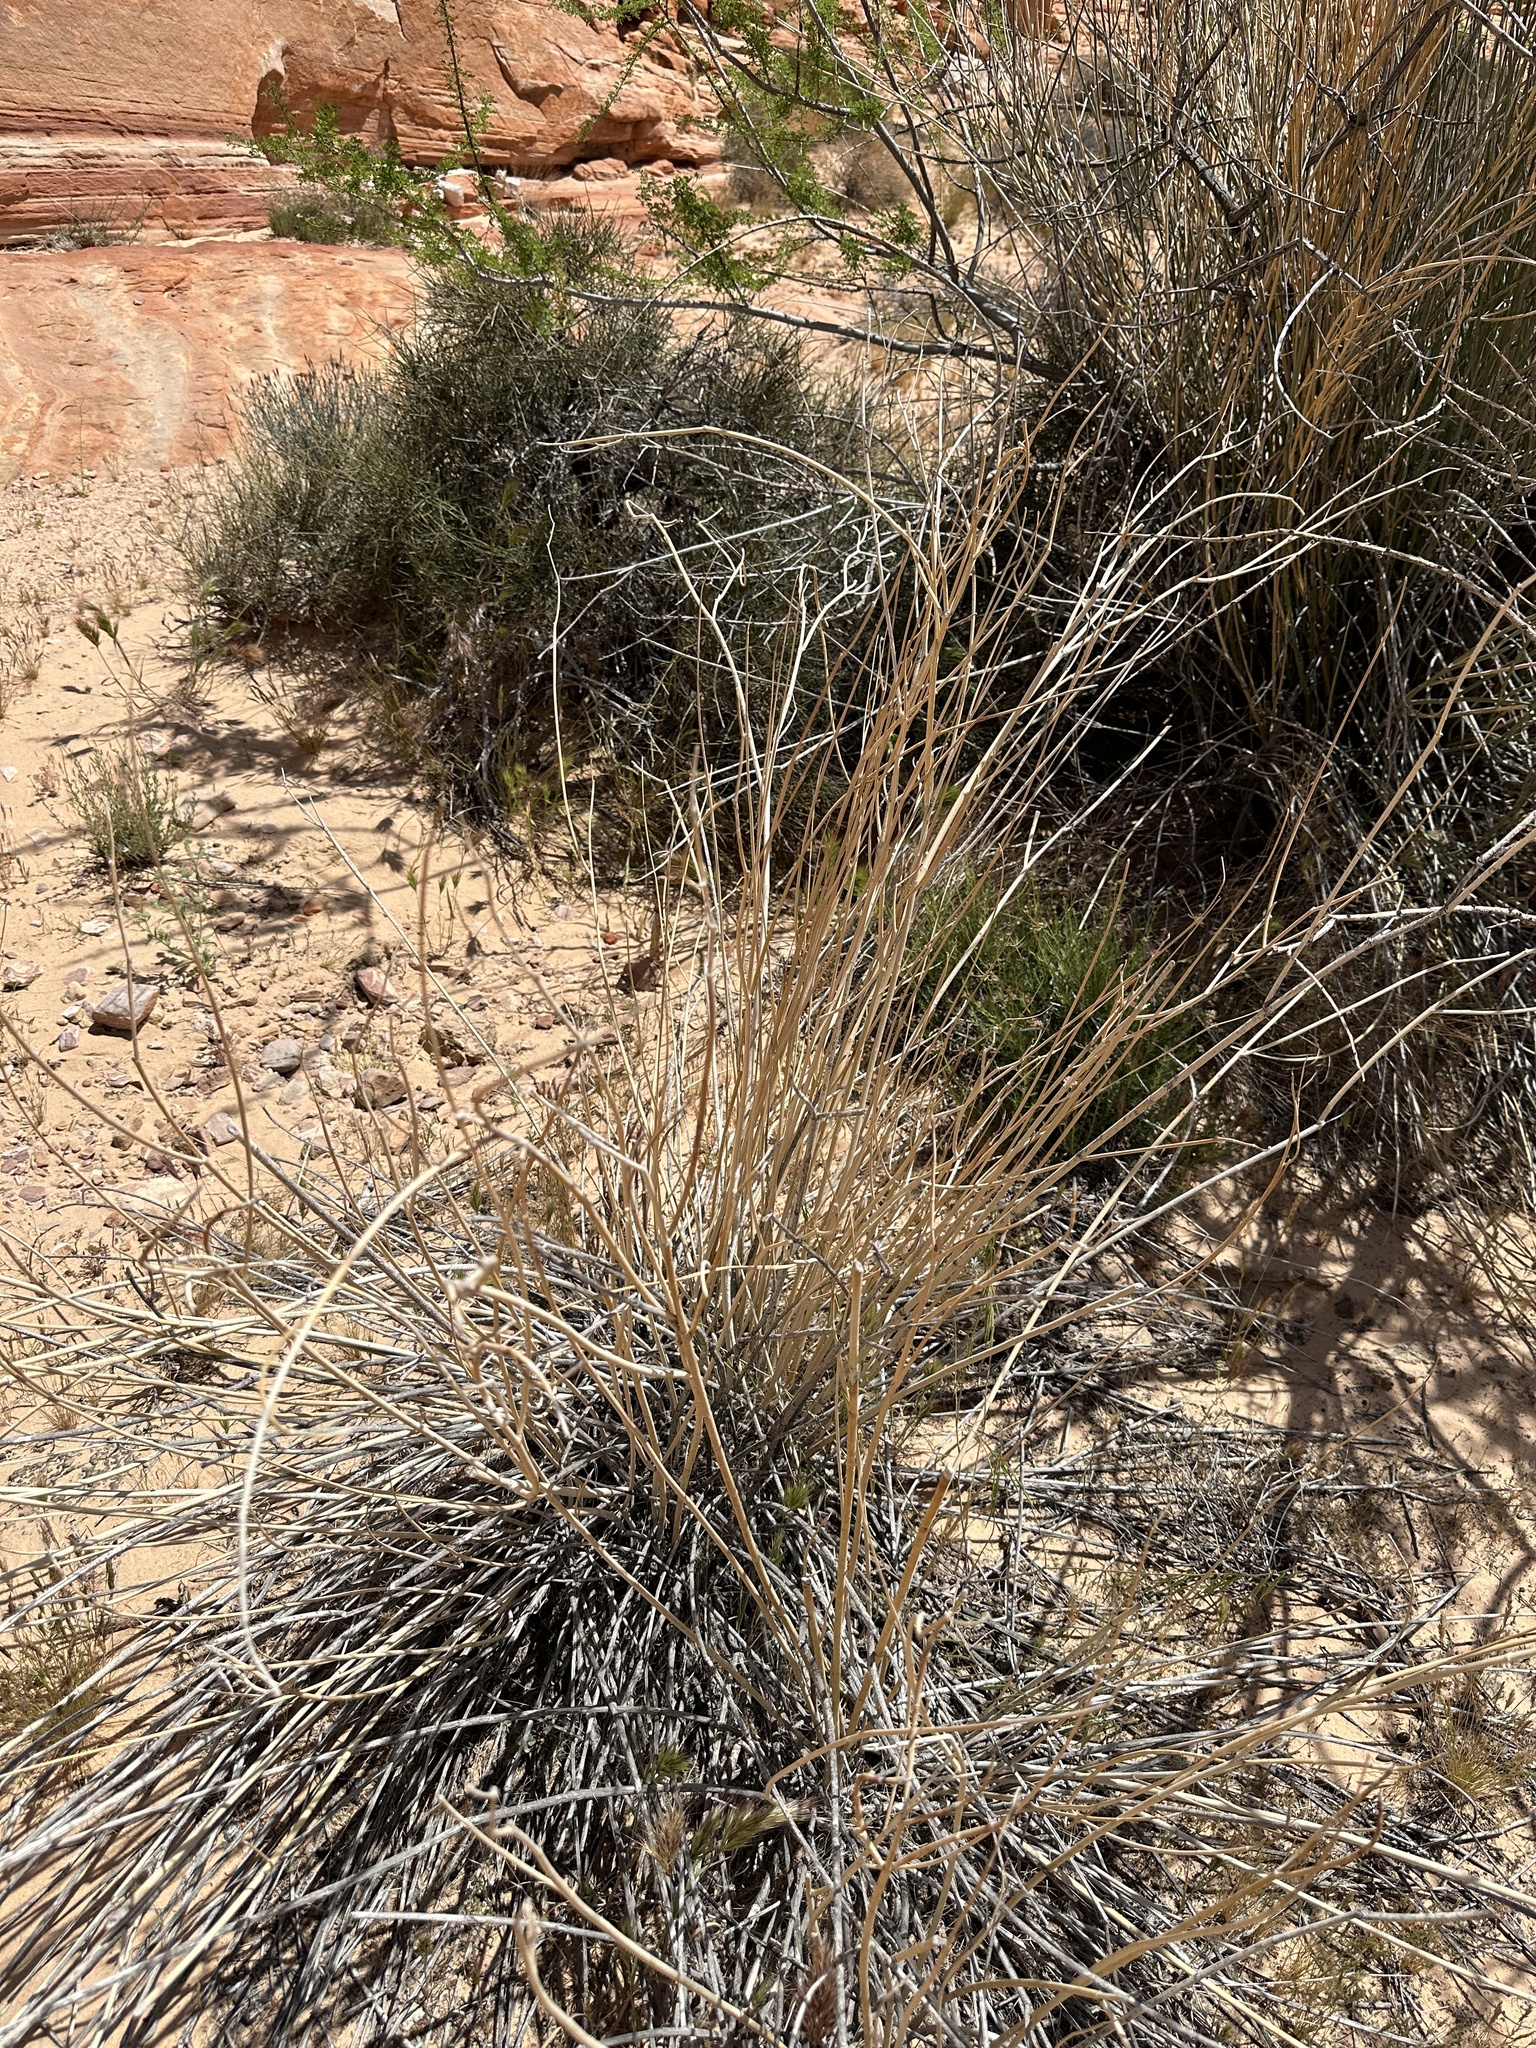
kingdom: Plantae
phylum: Tracheophyta
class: Magnoliopsida
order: Gentianales
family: Apocynaceae
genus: Asclepias
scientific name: Asclepias subulata
